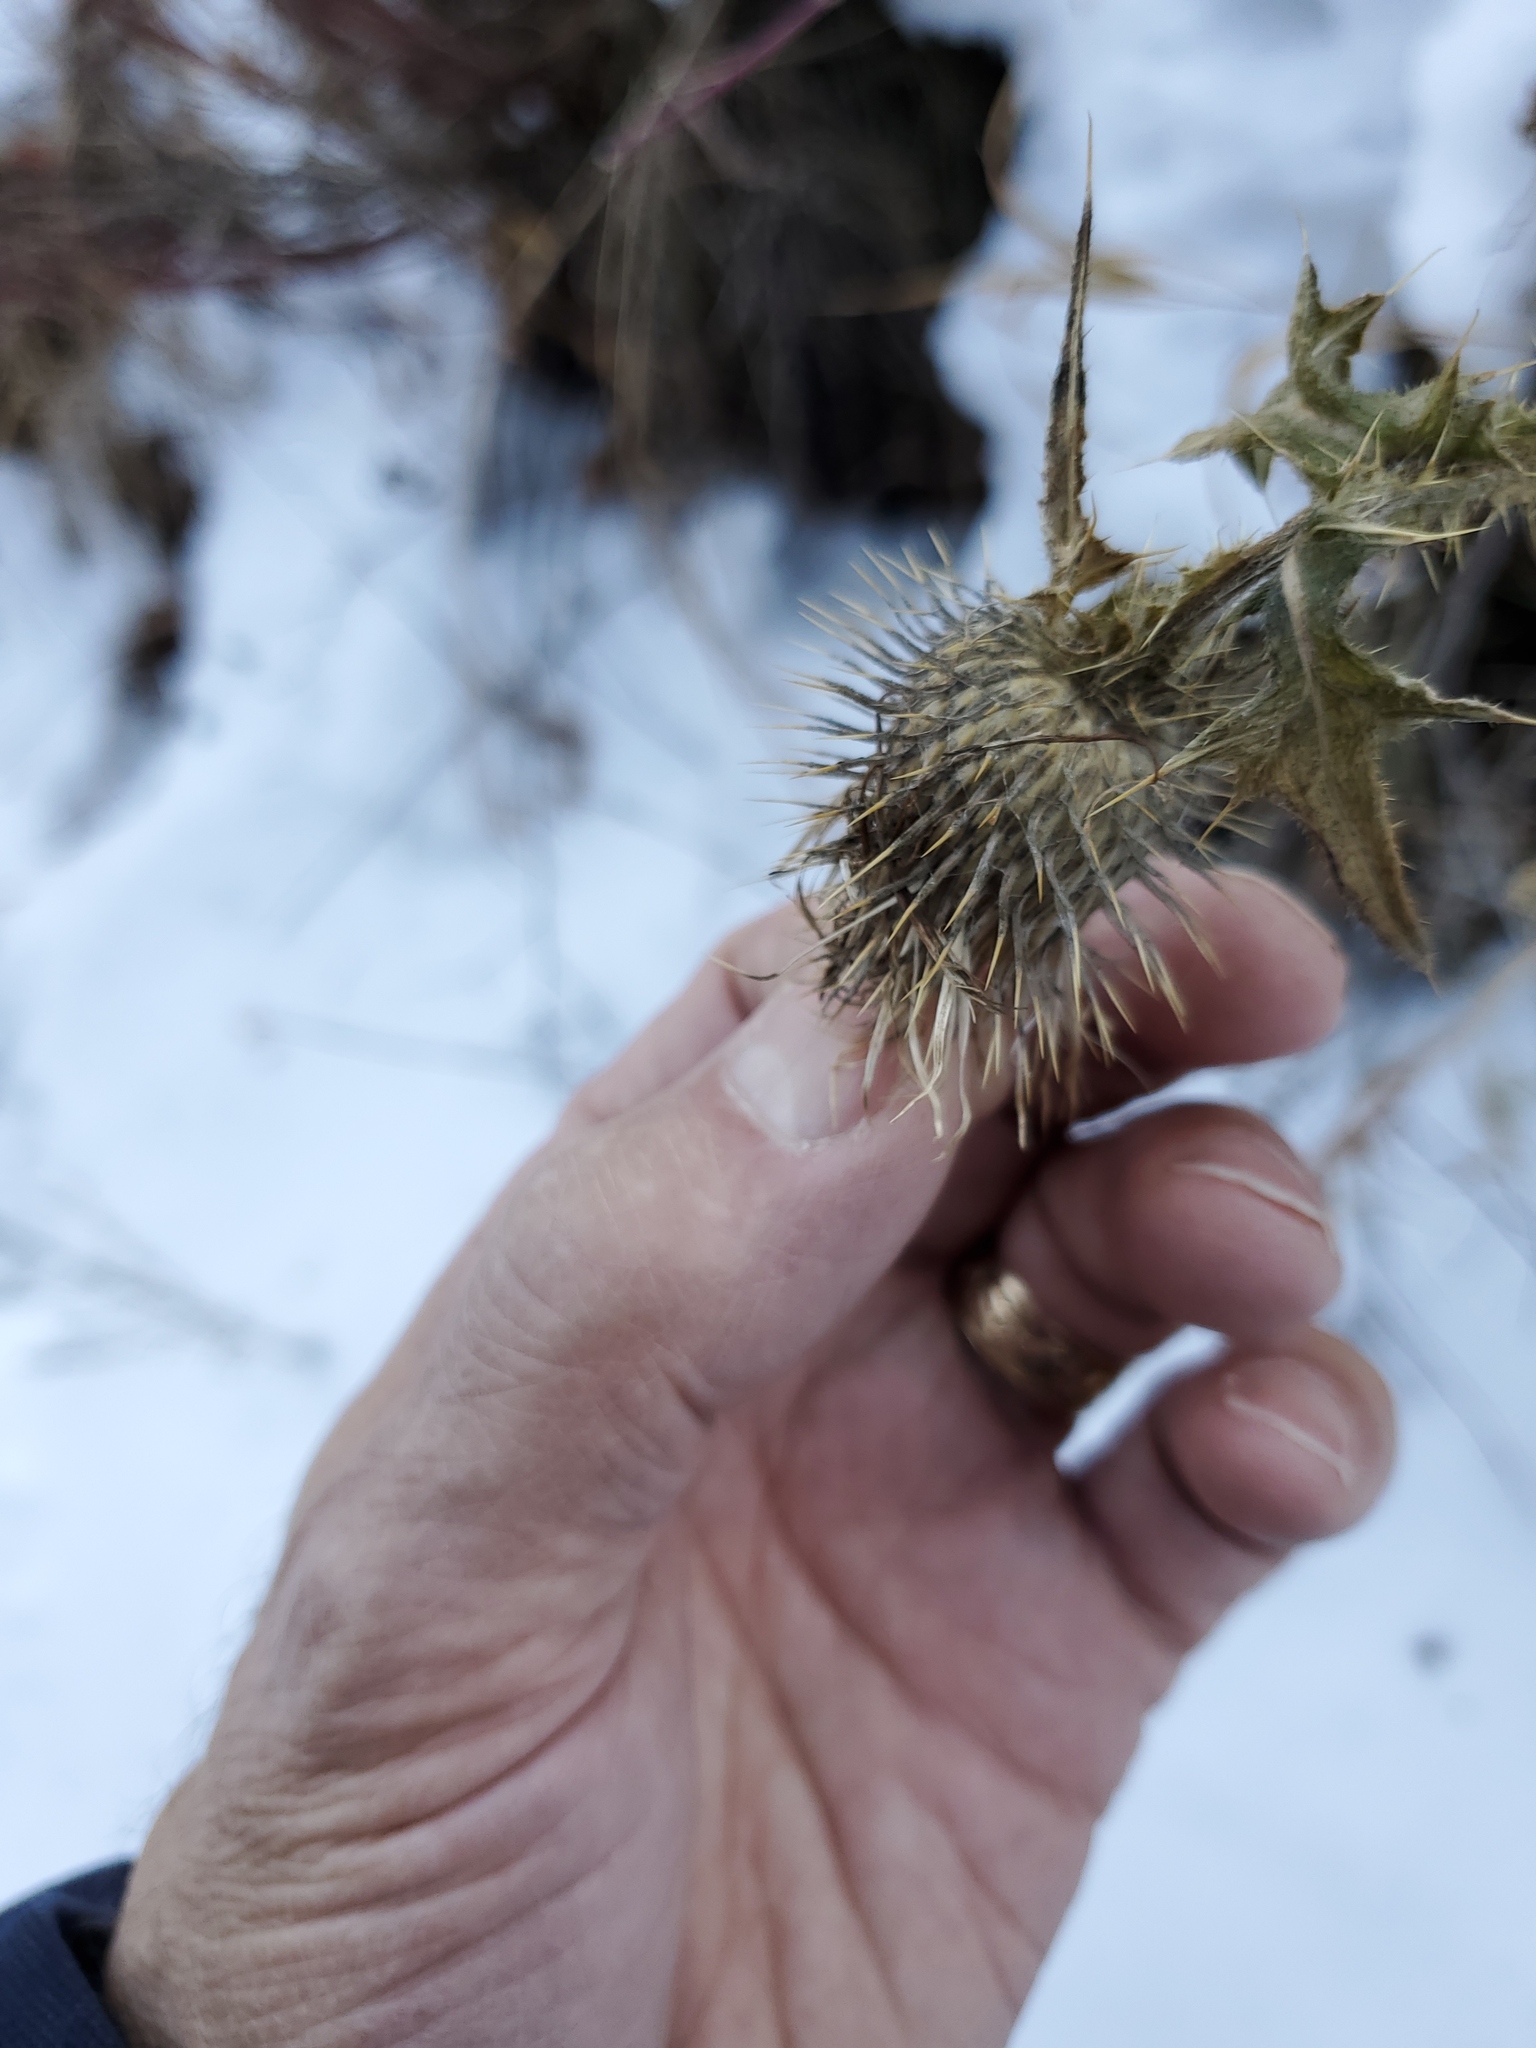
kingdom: Plantae
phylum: Tracheophyta
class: Magnoliopsida
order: Asterales
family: Asteraceae
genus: Cirsium
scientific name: Cirsium vulgare
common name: Bull thistle
